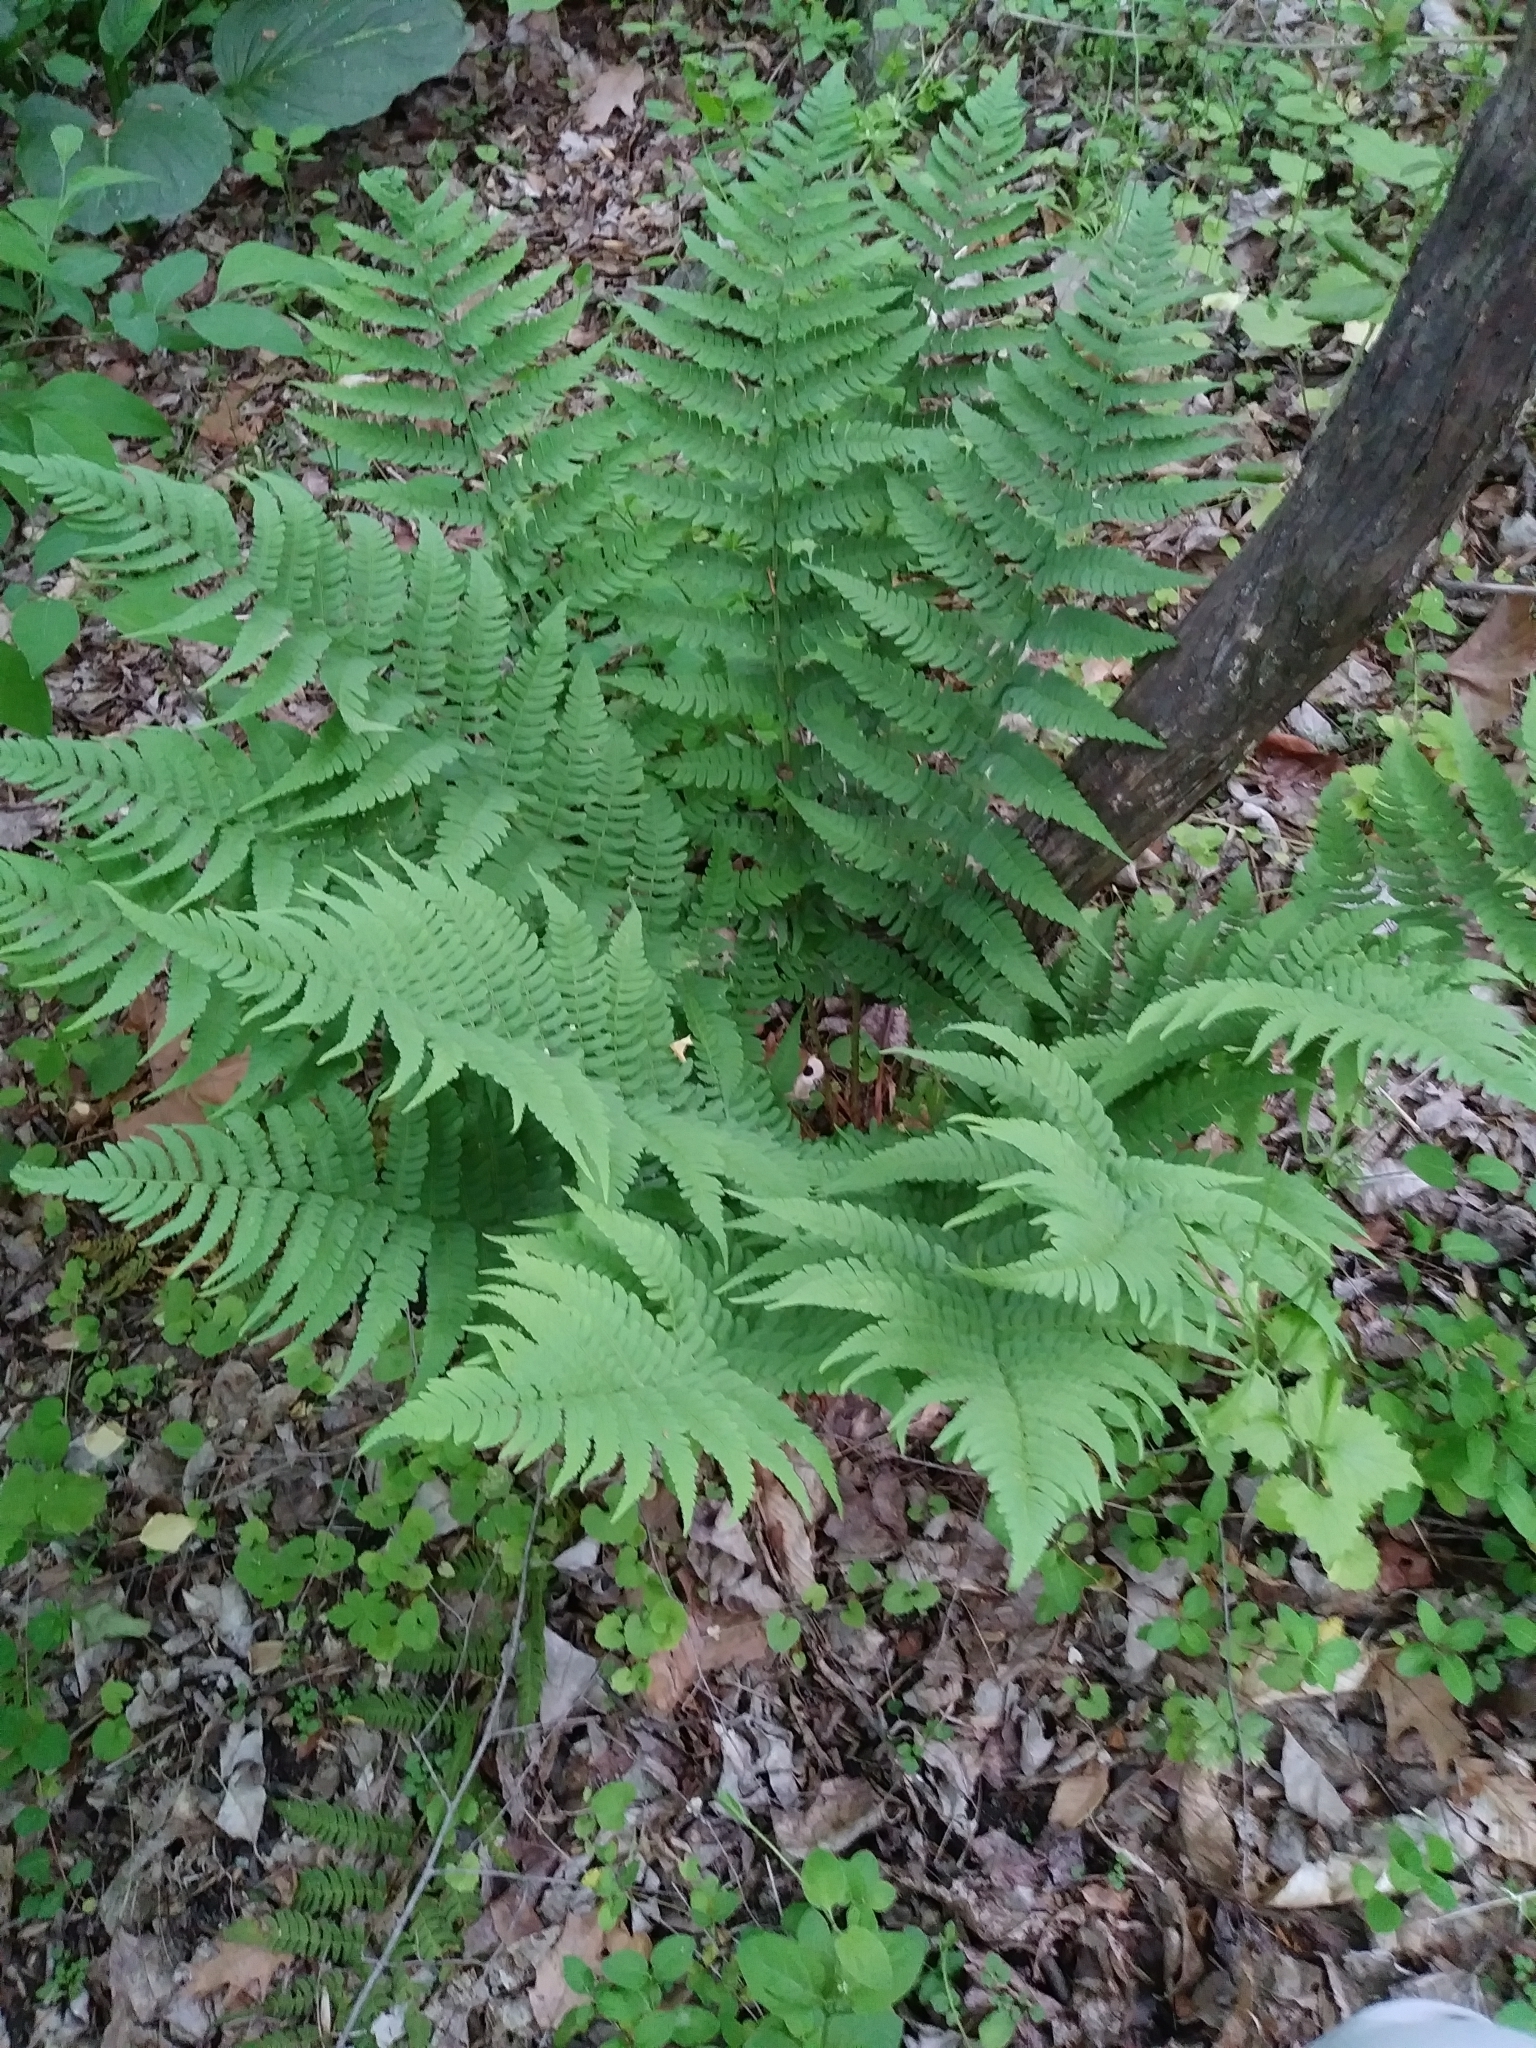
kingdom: Plantae
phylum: Tracheophyta
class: Polypodiopsida
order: Polypodiales
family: Dryopteridaceae
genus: Dryopteris
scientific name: Dryopteris marginalis
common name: Marginal wood fern
